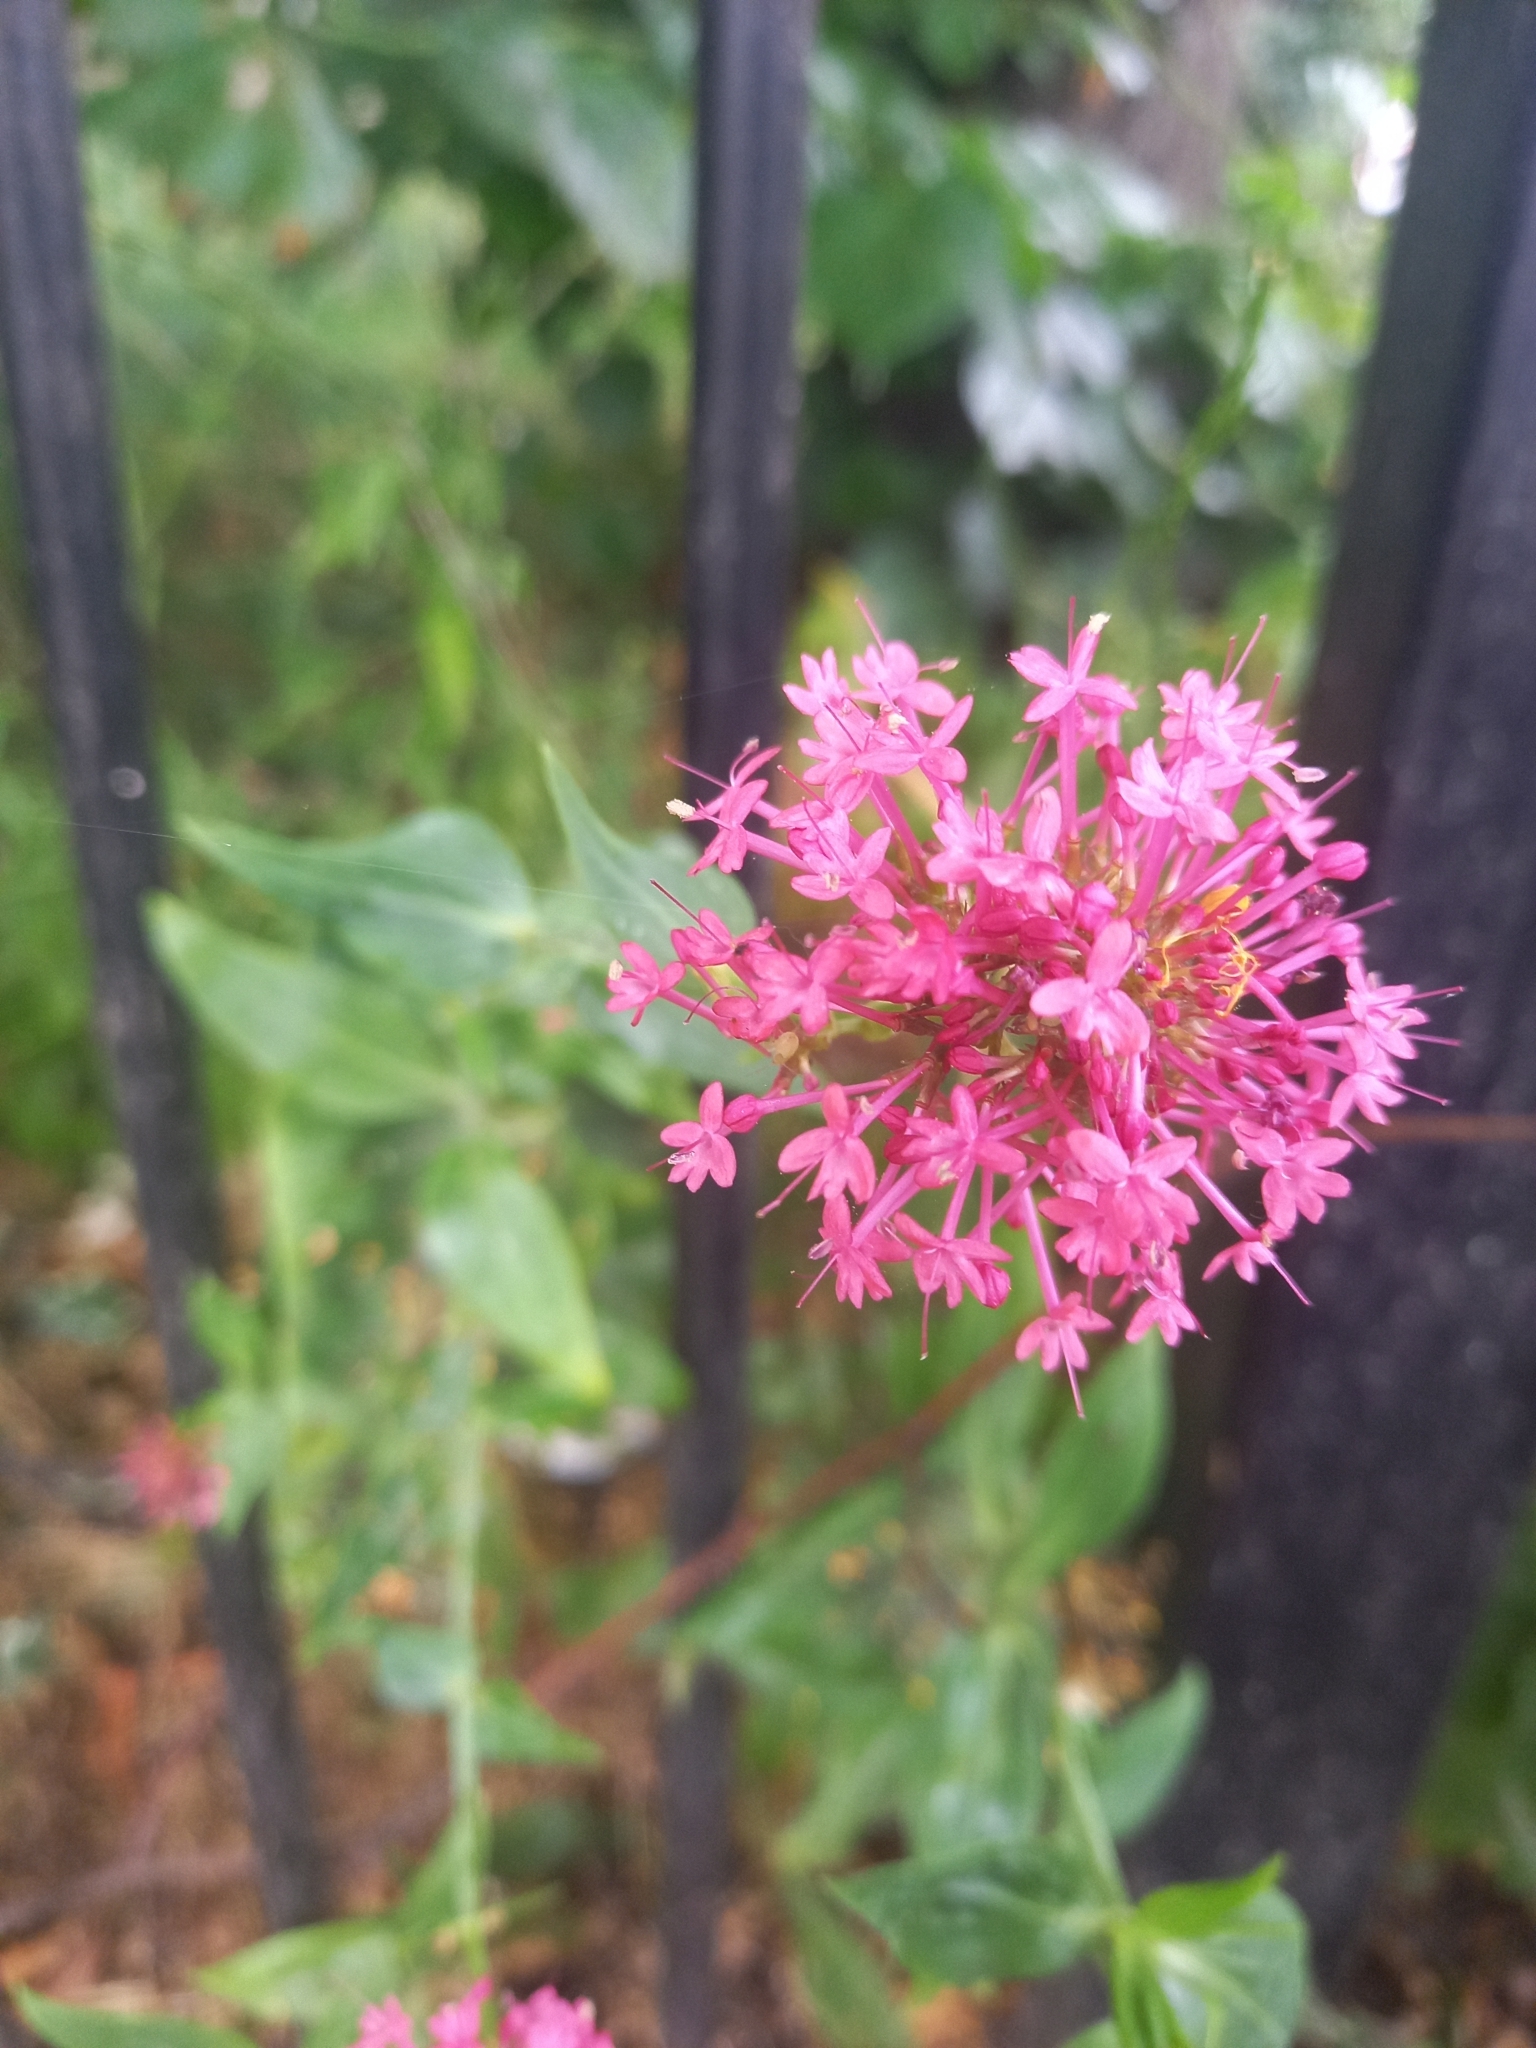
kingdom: Plantae
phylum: Tracheophyta
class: Magnoliopsida
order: Dipsacales
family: Caprifoliaceae
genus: Centranthus
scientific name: Centranthus ruber
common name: Red valerian
